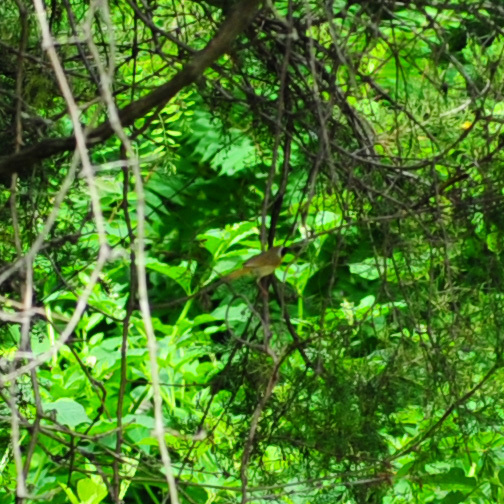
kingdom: Animalia
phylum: Chordata
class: Aves
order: Passeriformes
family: Parulidae
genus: Geothlypis
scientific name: Geothlypis trichas
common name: Common yellowthroat
